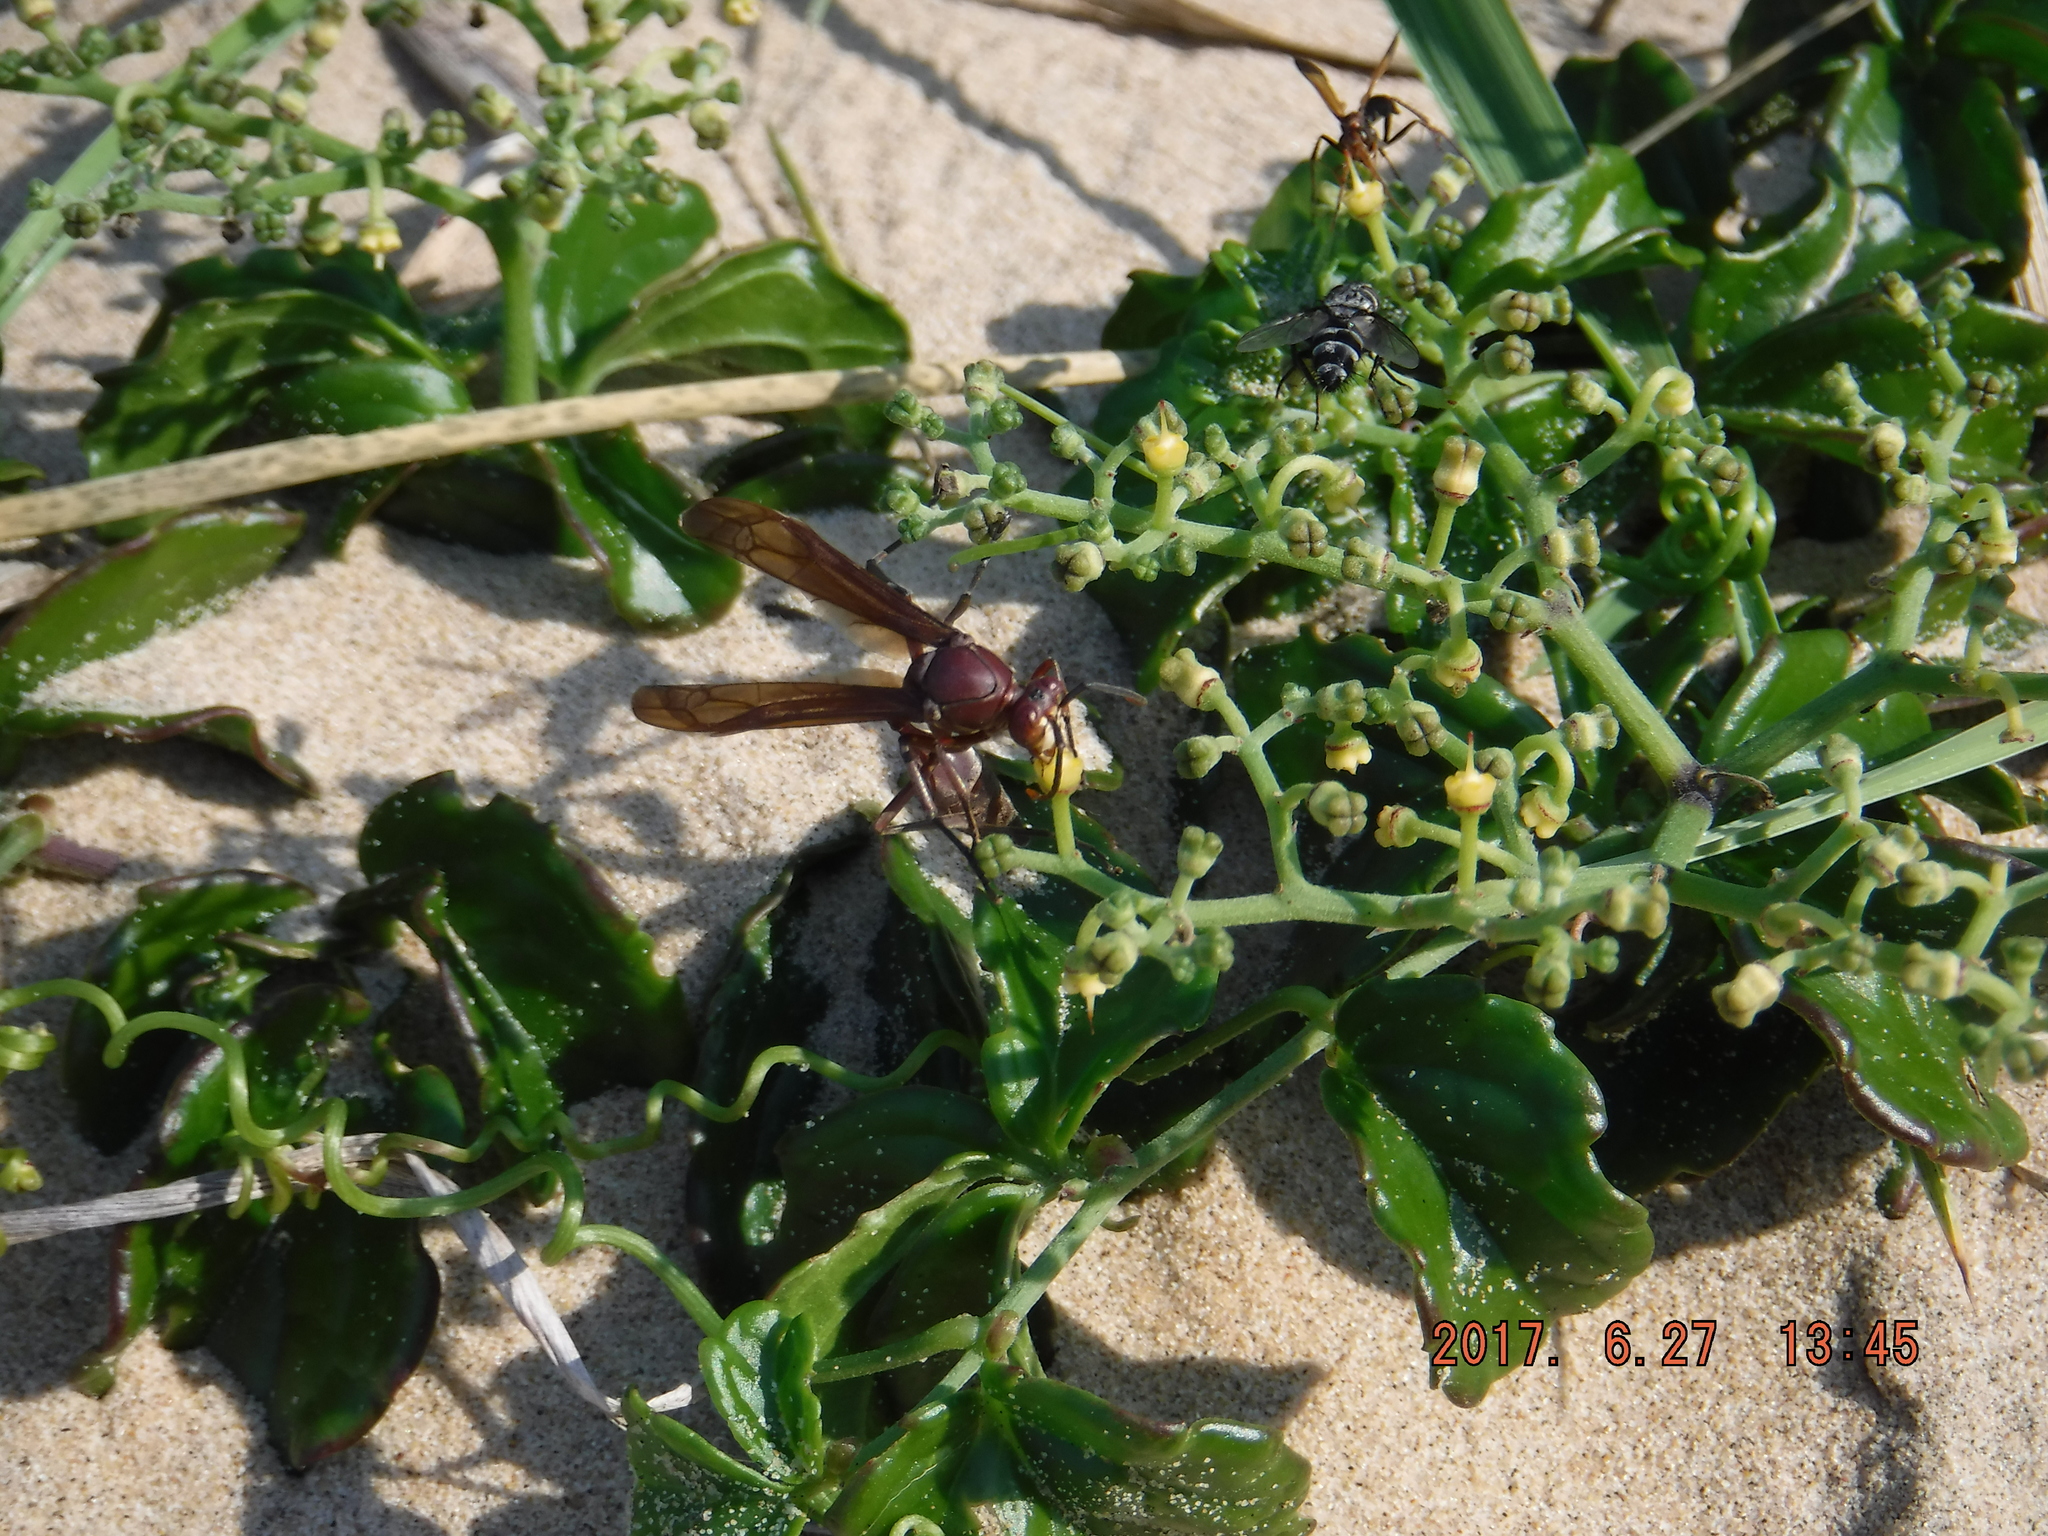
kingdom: Plantae
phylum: Tracheophyta
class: Magnoliopsida
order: Vitales
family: Vitaceae
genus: Cyphostemma
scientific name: Cyphostemma flaviflorum
